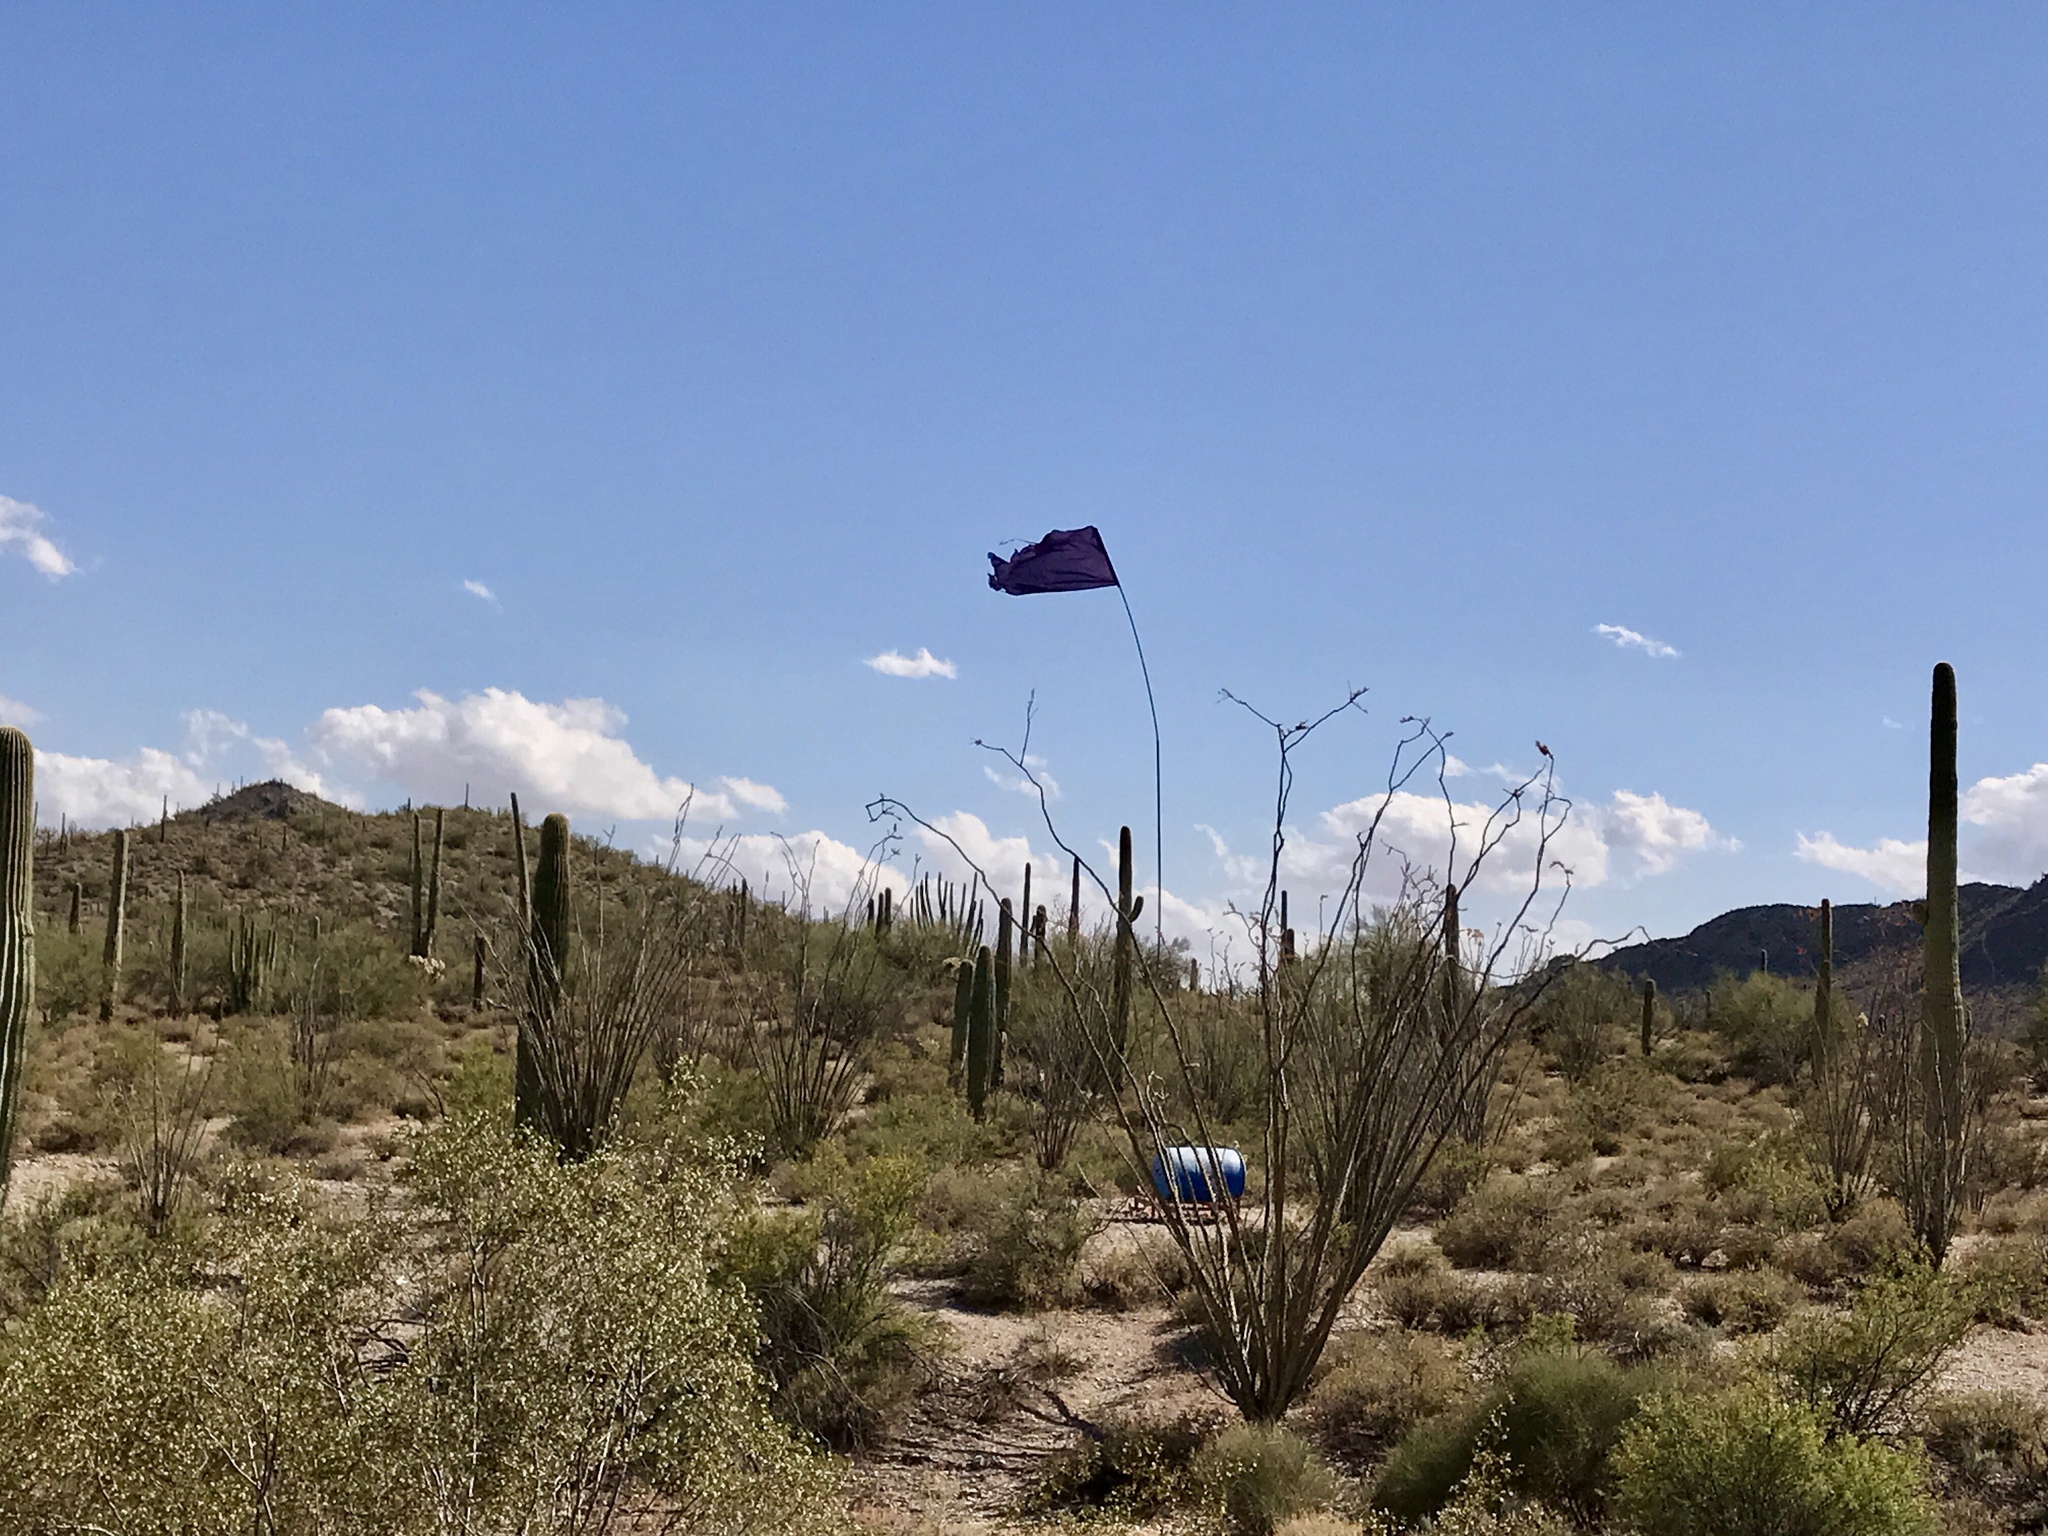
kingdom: Plantae
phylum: Tracheophyta
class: Magnoliopsida
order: Ericales
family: Fouquieriaceae
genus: Fouquieria
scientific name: Fouquieria splendens
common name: Vine-cactus
